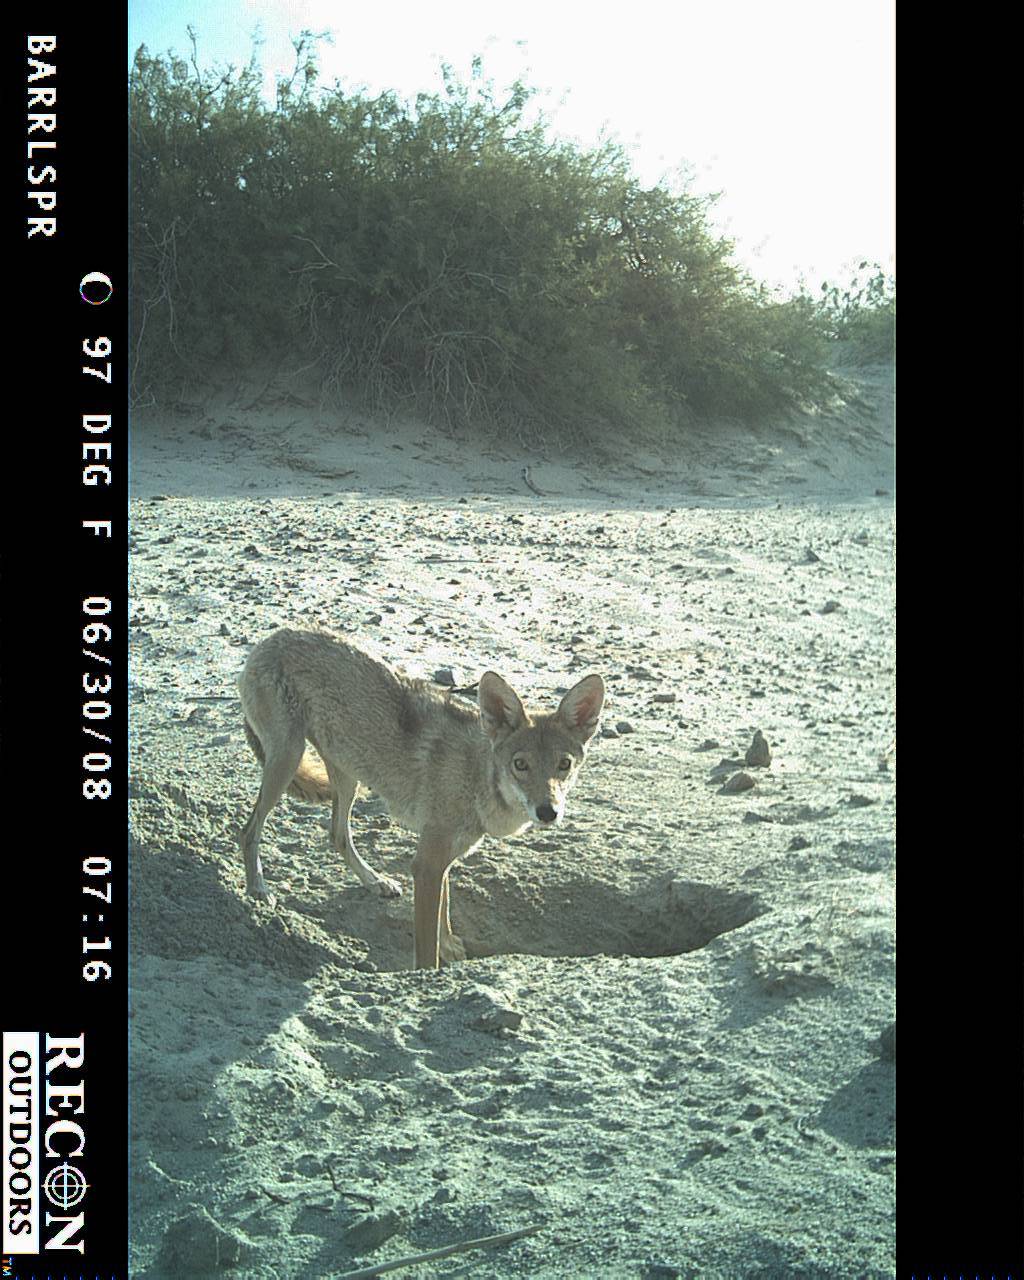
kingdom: Animalia
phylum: Chordata
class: Mammalia
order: Carnivora
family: Canidae
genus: Canis
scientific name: Canis latrans
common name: Coyote
